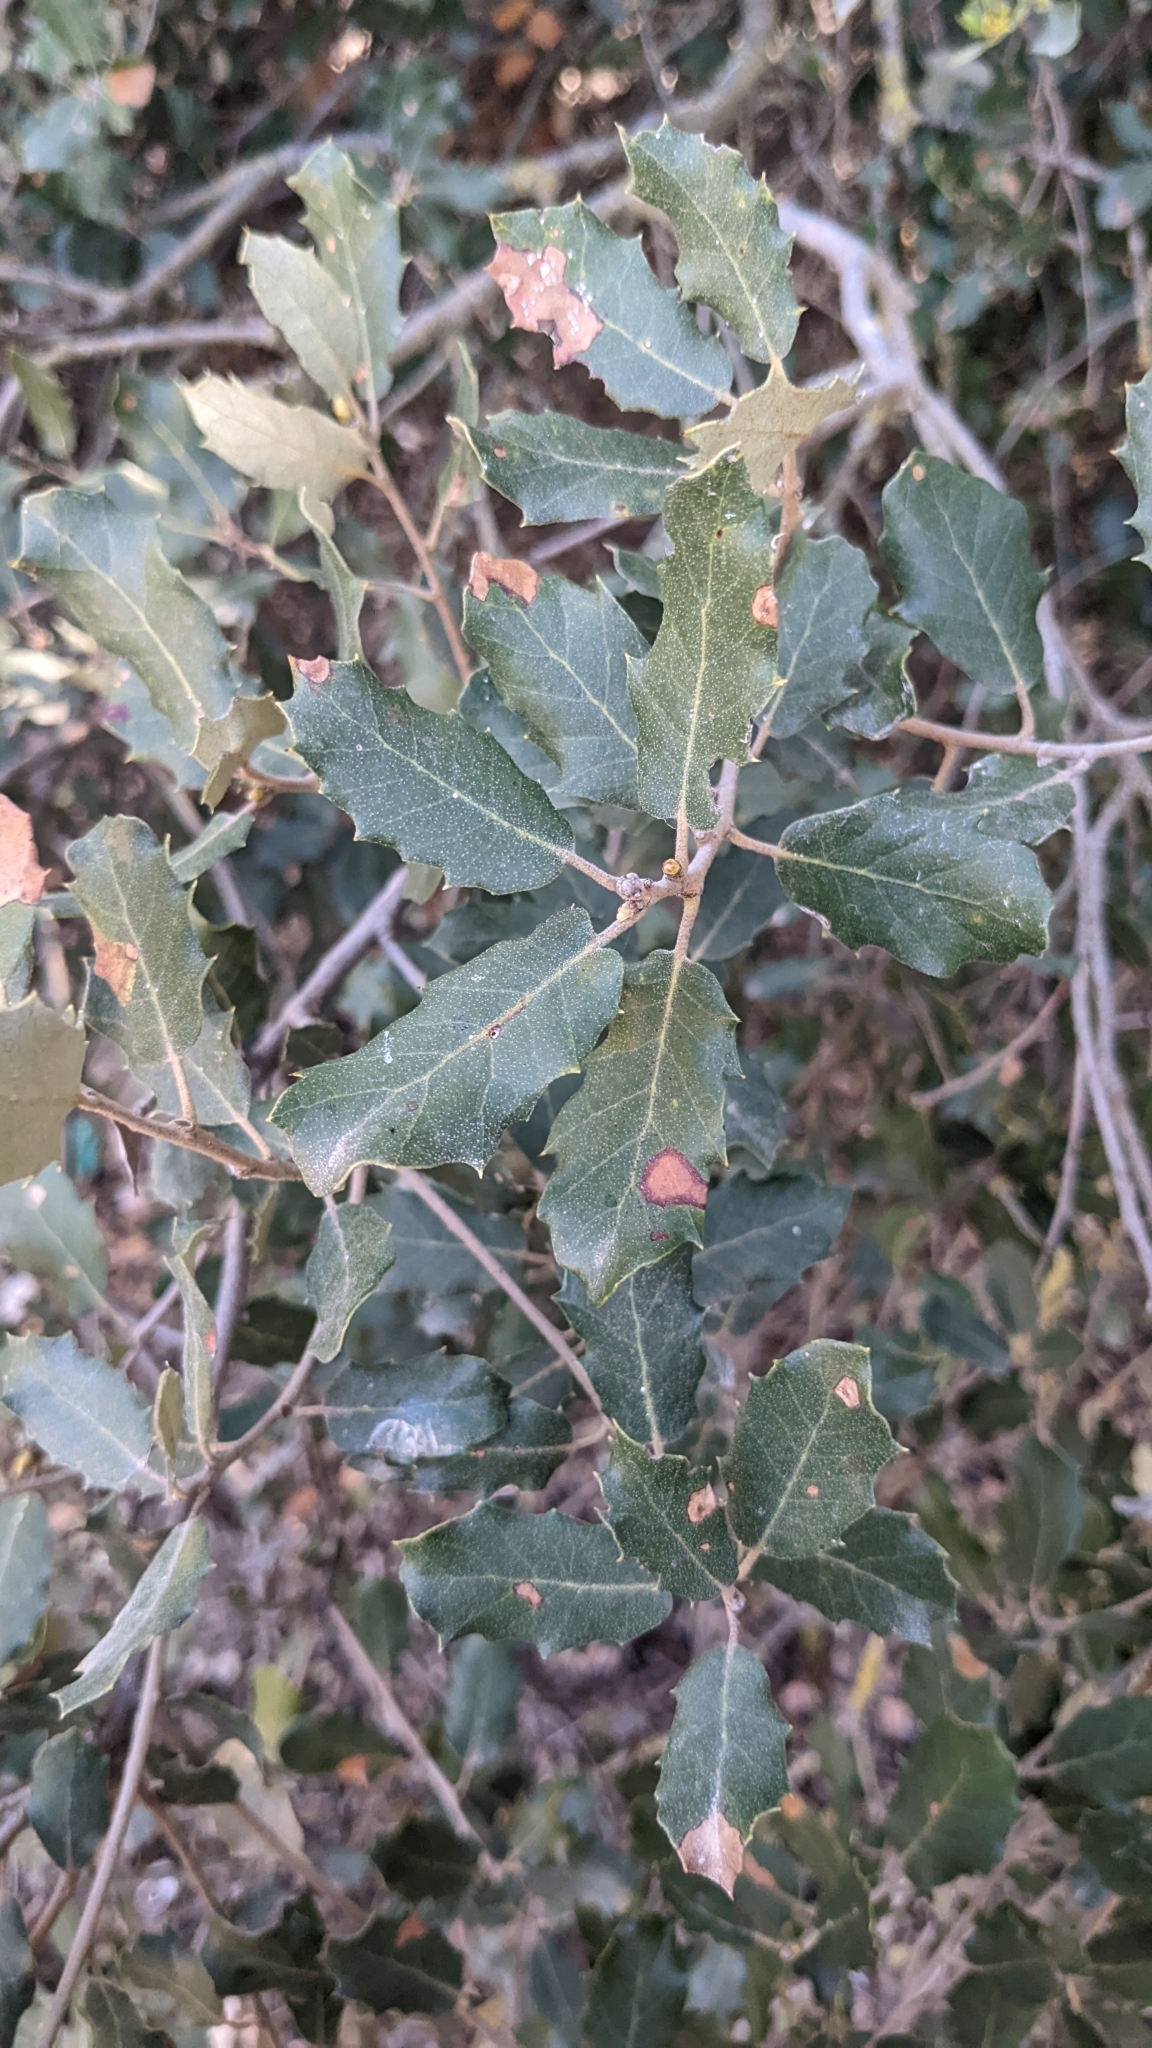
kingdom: Plantae
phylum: Tracheophyta
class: Magnoliopsida
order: Fagales
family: Fagaceae
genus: Quercus
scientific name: Quercus rotundifolia
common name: Holm oak
